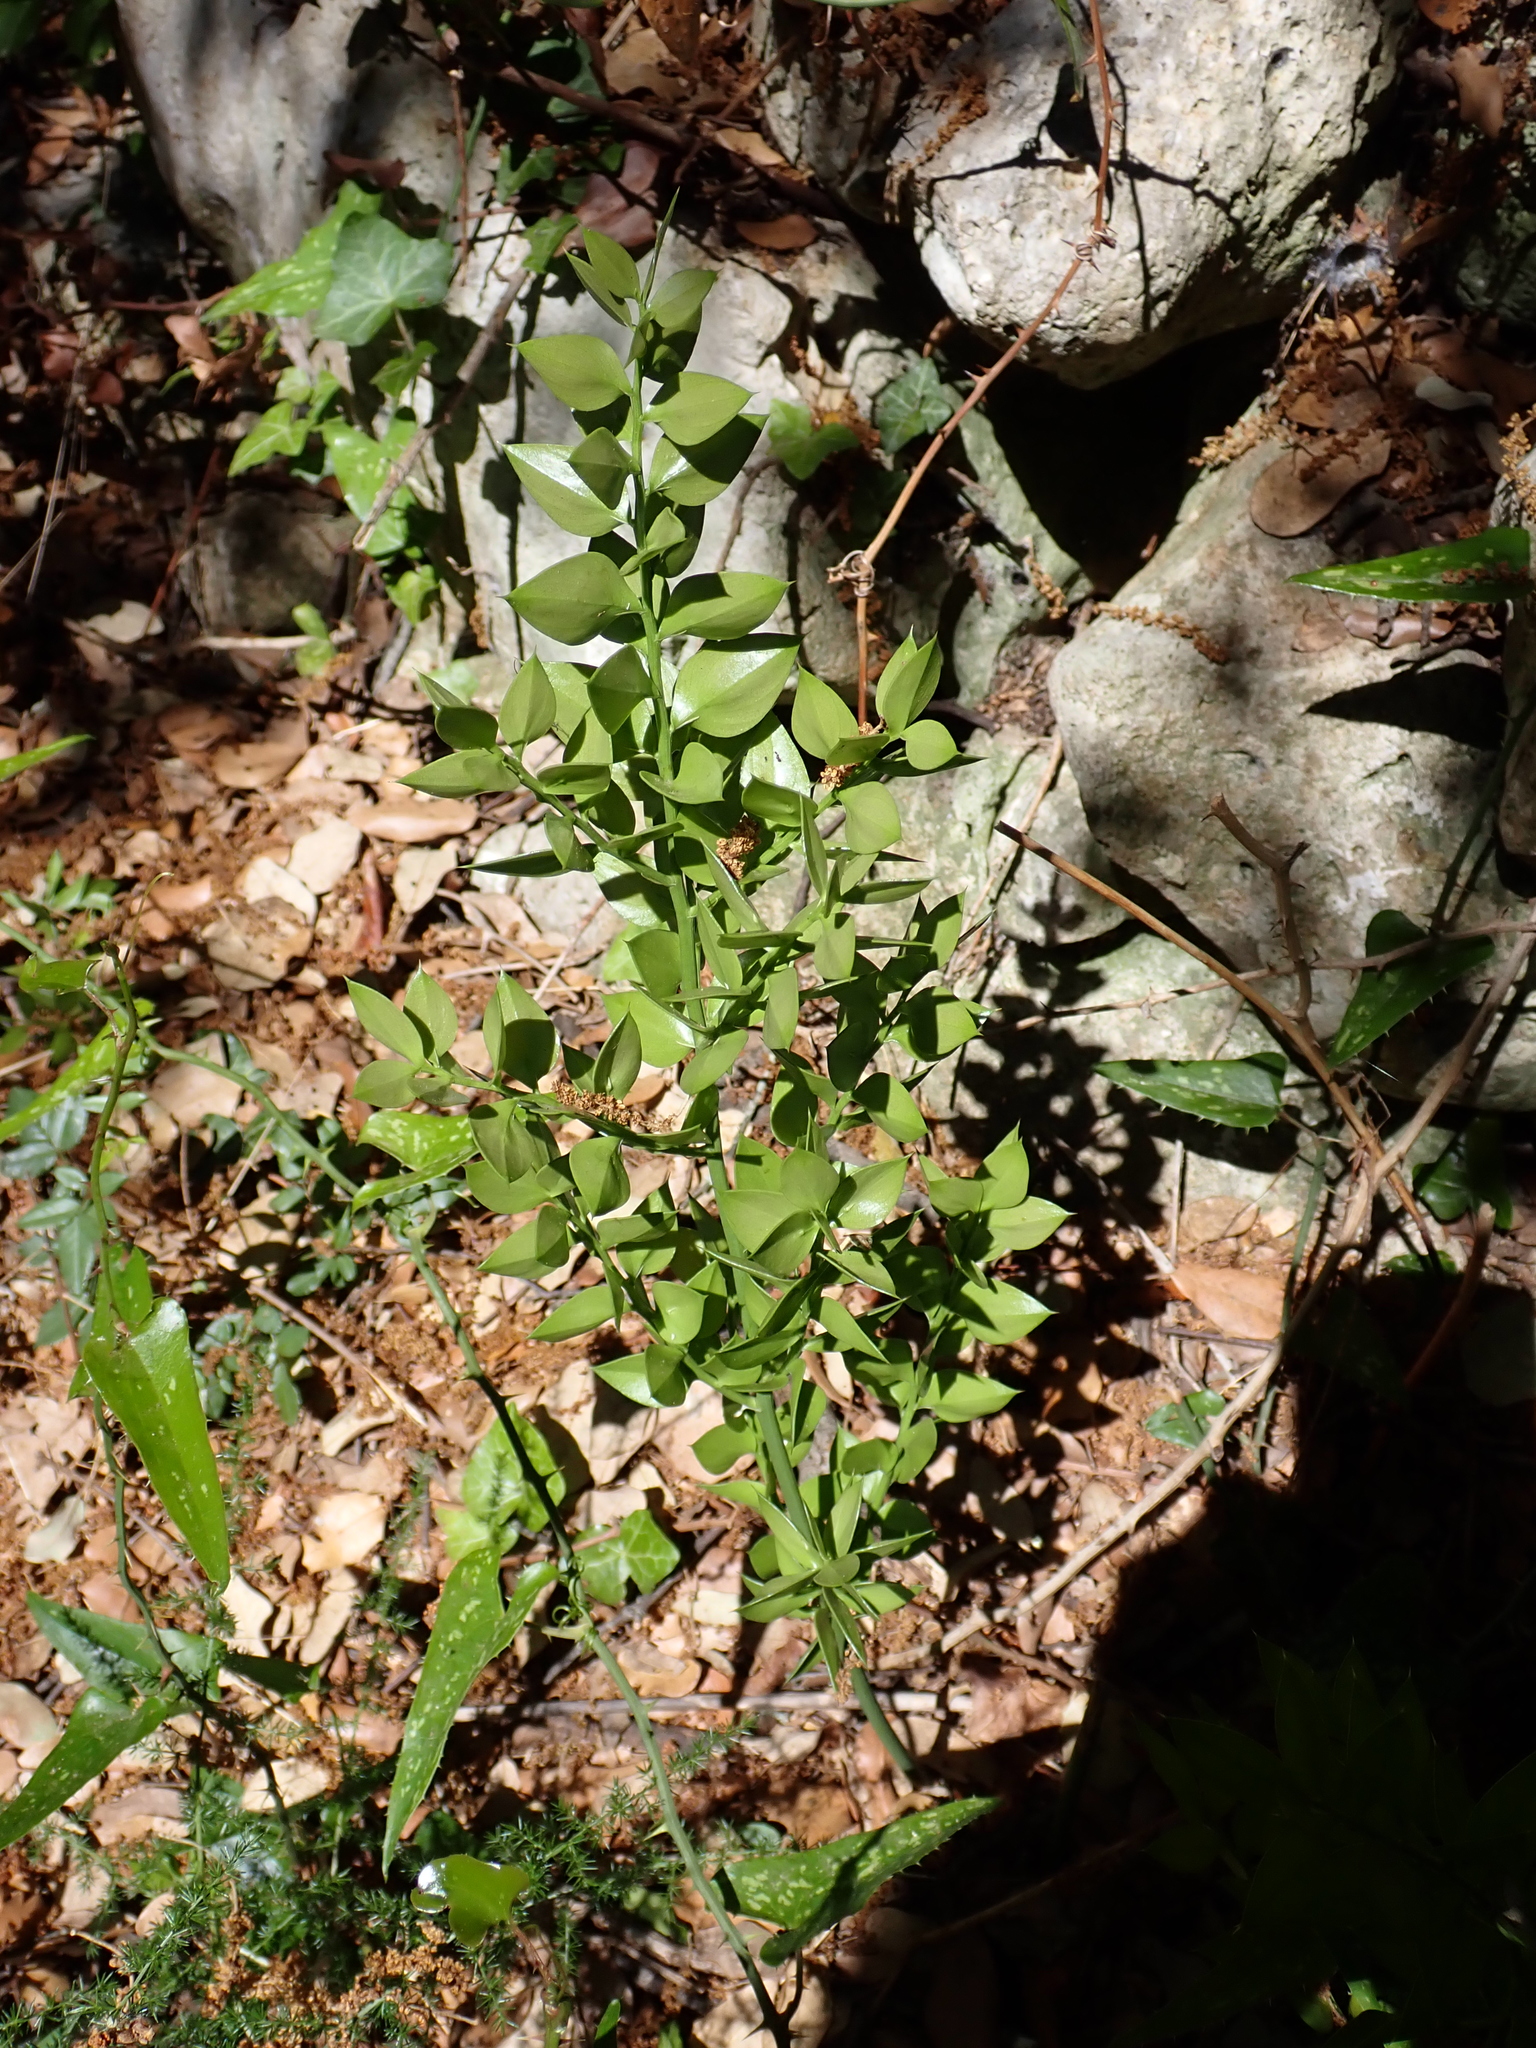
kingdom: Plantae
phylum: Tracheophyta
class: Liliopsida
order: Asparagales
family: Asparagaceae
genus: Ruscus
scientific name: Ruscus aculeatus
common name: Butcher's-broom
